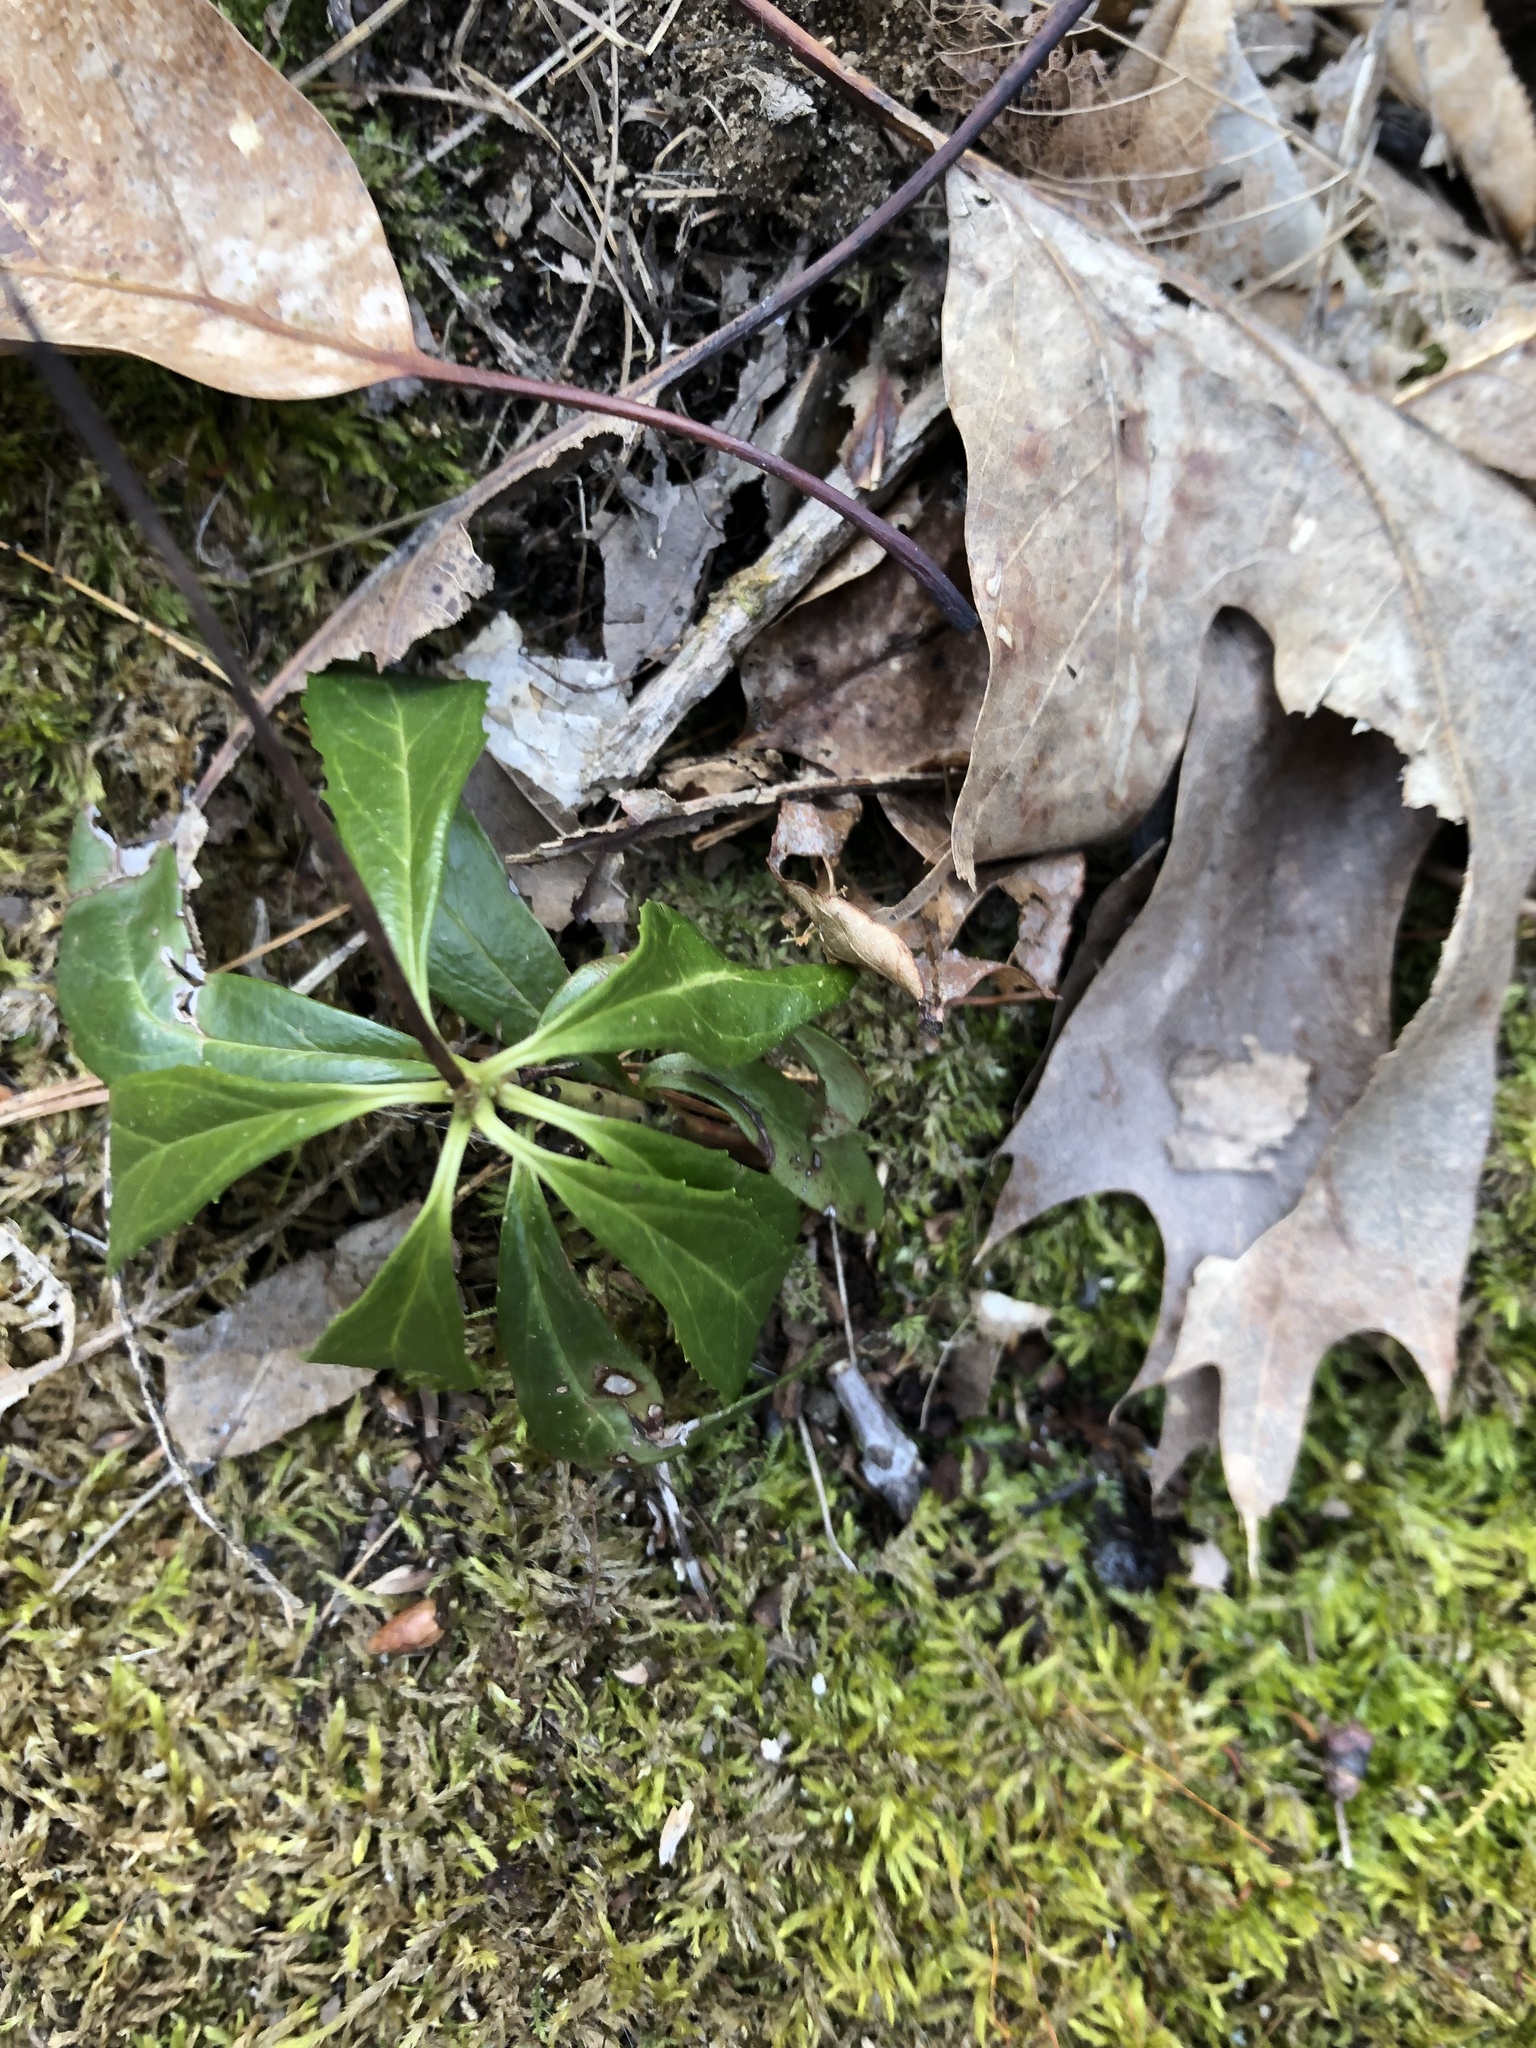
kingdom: Plantae
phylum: Tracheophyta
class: Magnoliopsida
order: Ericales
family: Ericaceae
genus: Chimaphila
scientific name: Chimaphila umbellata
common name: Pipsissewa
